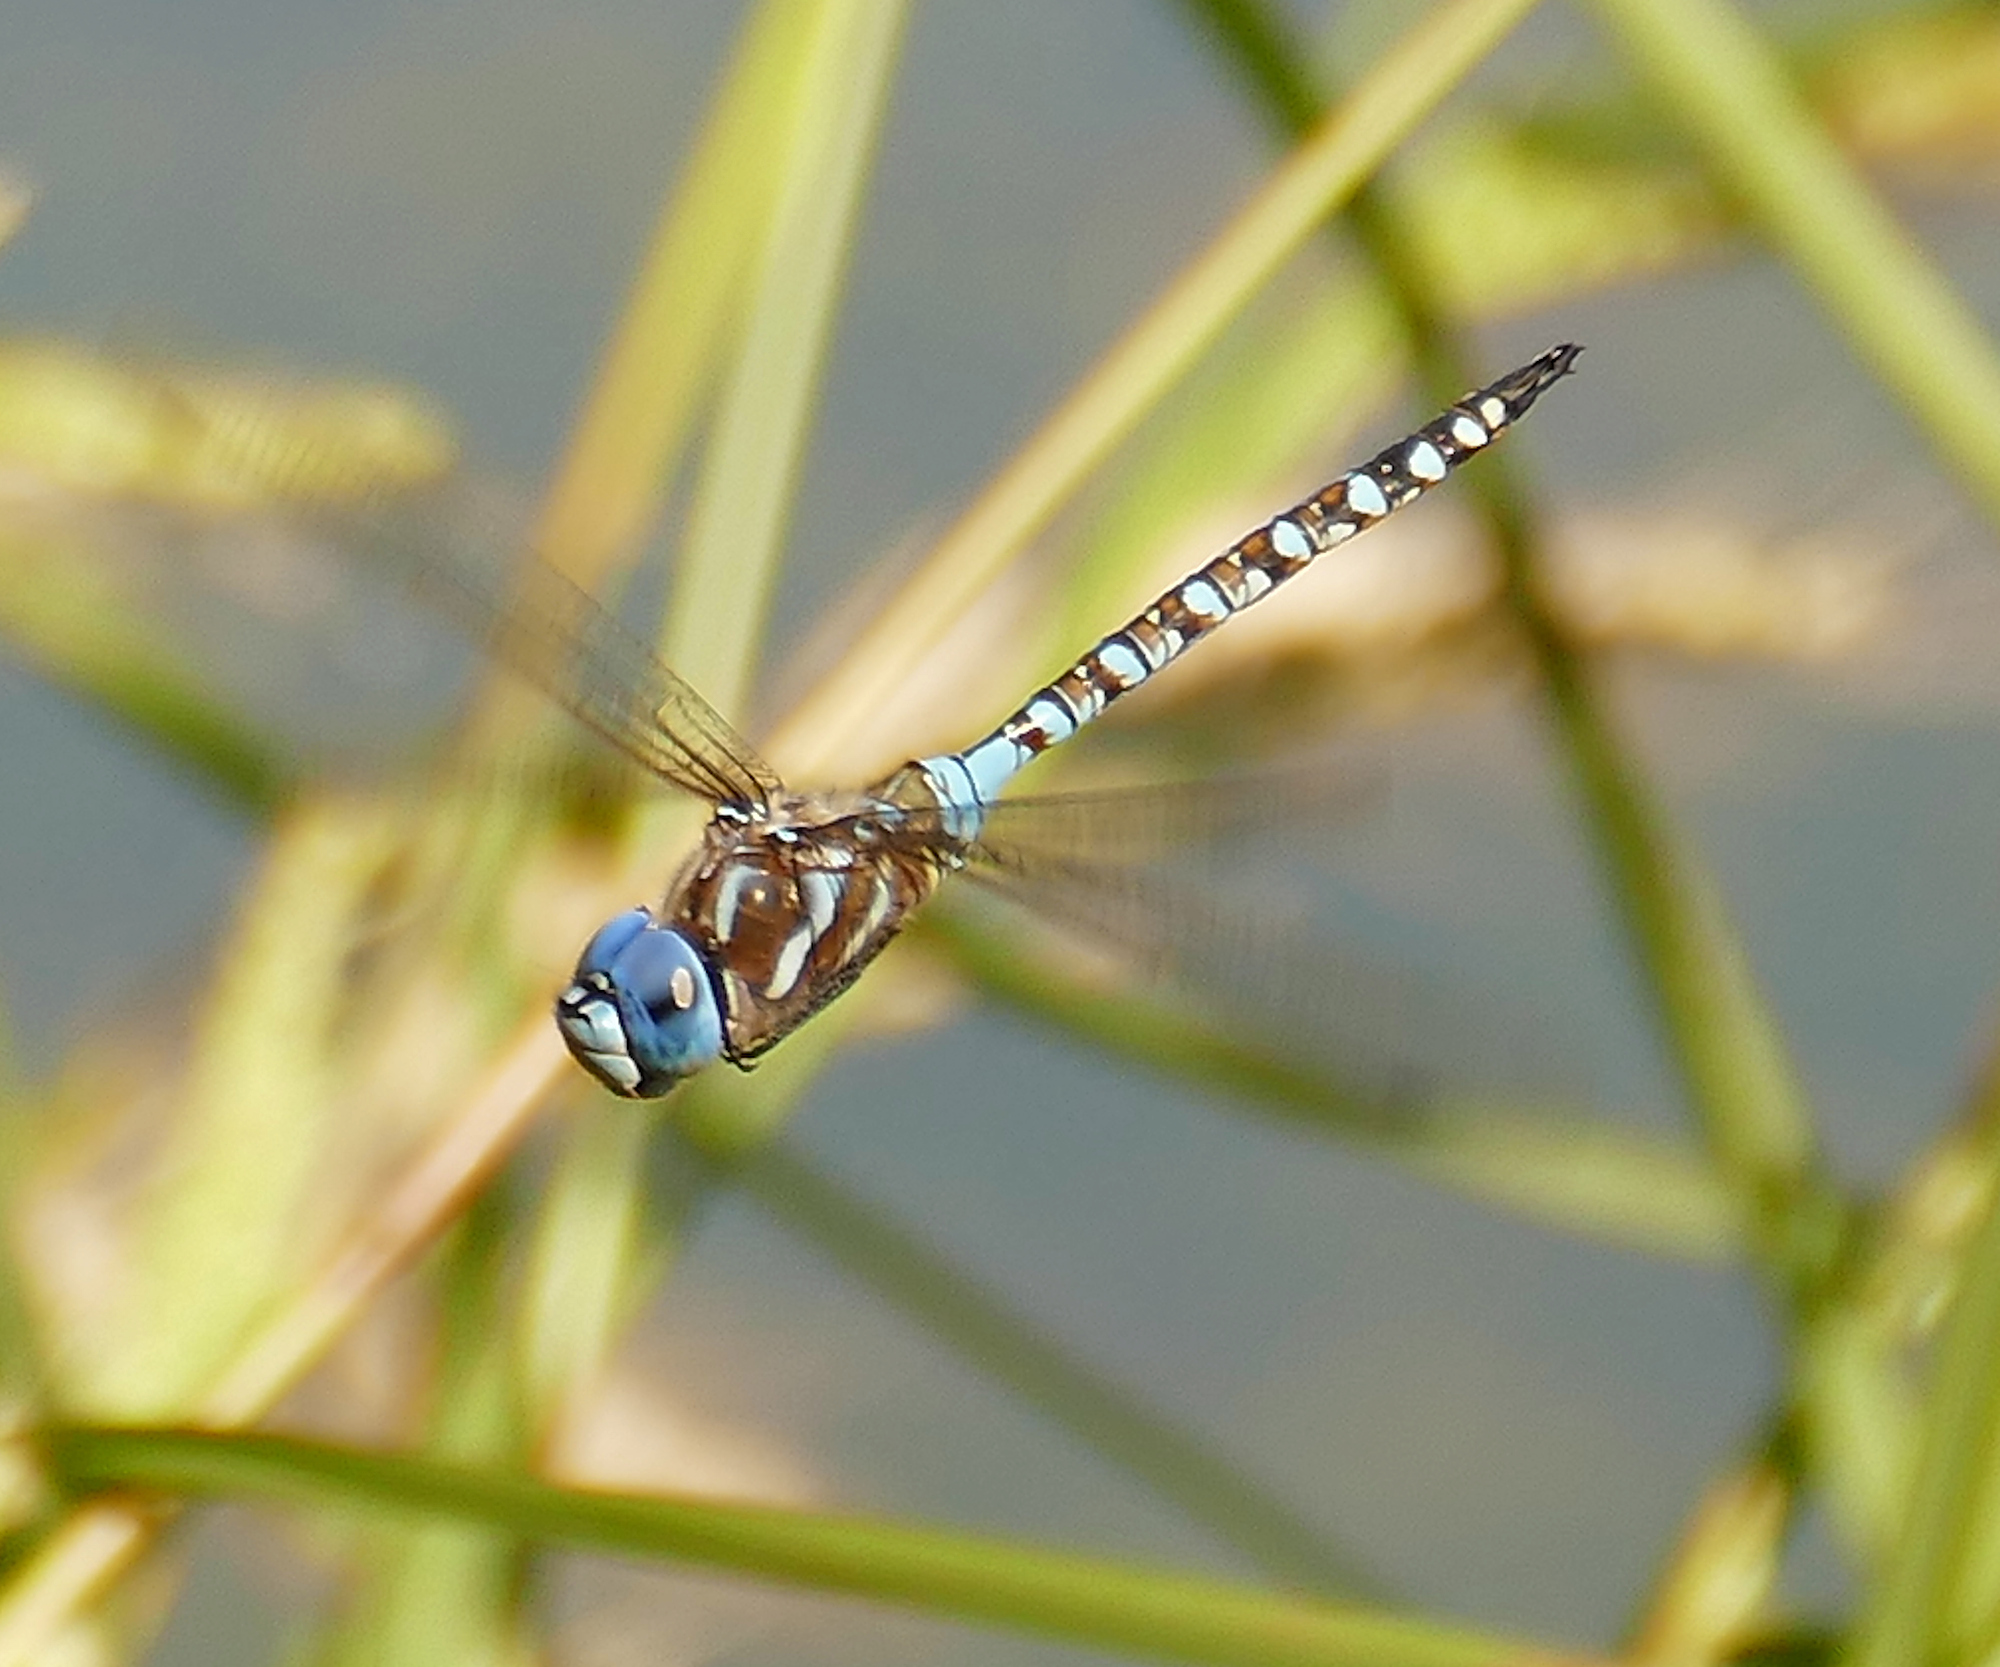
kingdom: Animalia
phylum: Arthropoda
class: Insecta
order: Odonata
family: Aeshnidae
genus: Rhionaeschna
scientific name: Rhionaeschna multicolor
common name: Blue-eyed darner
